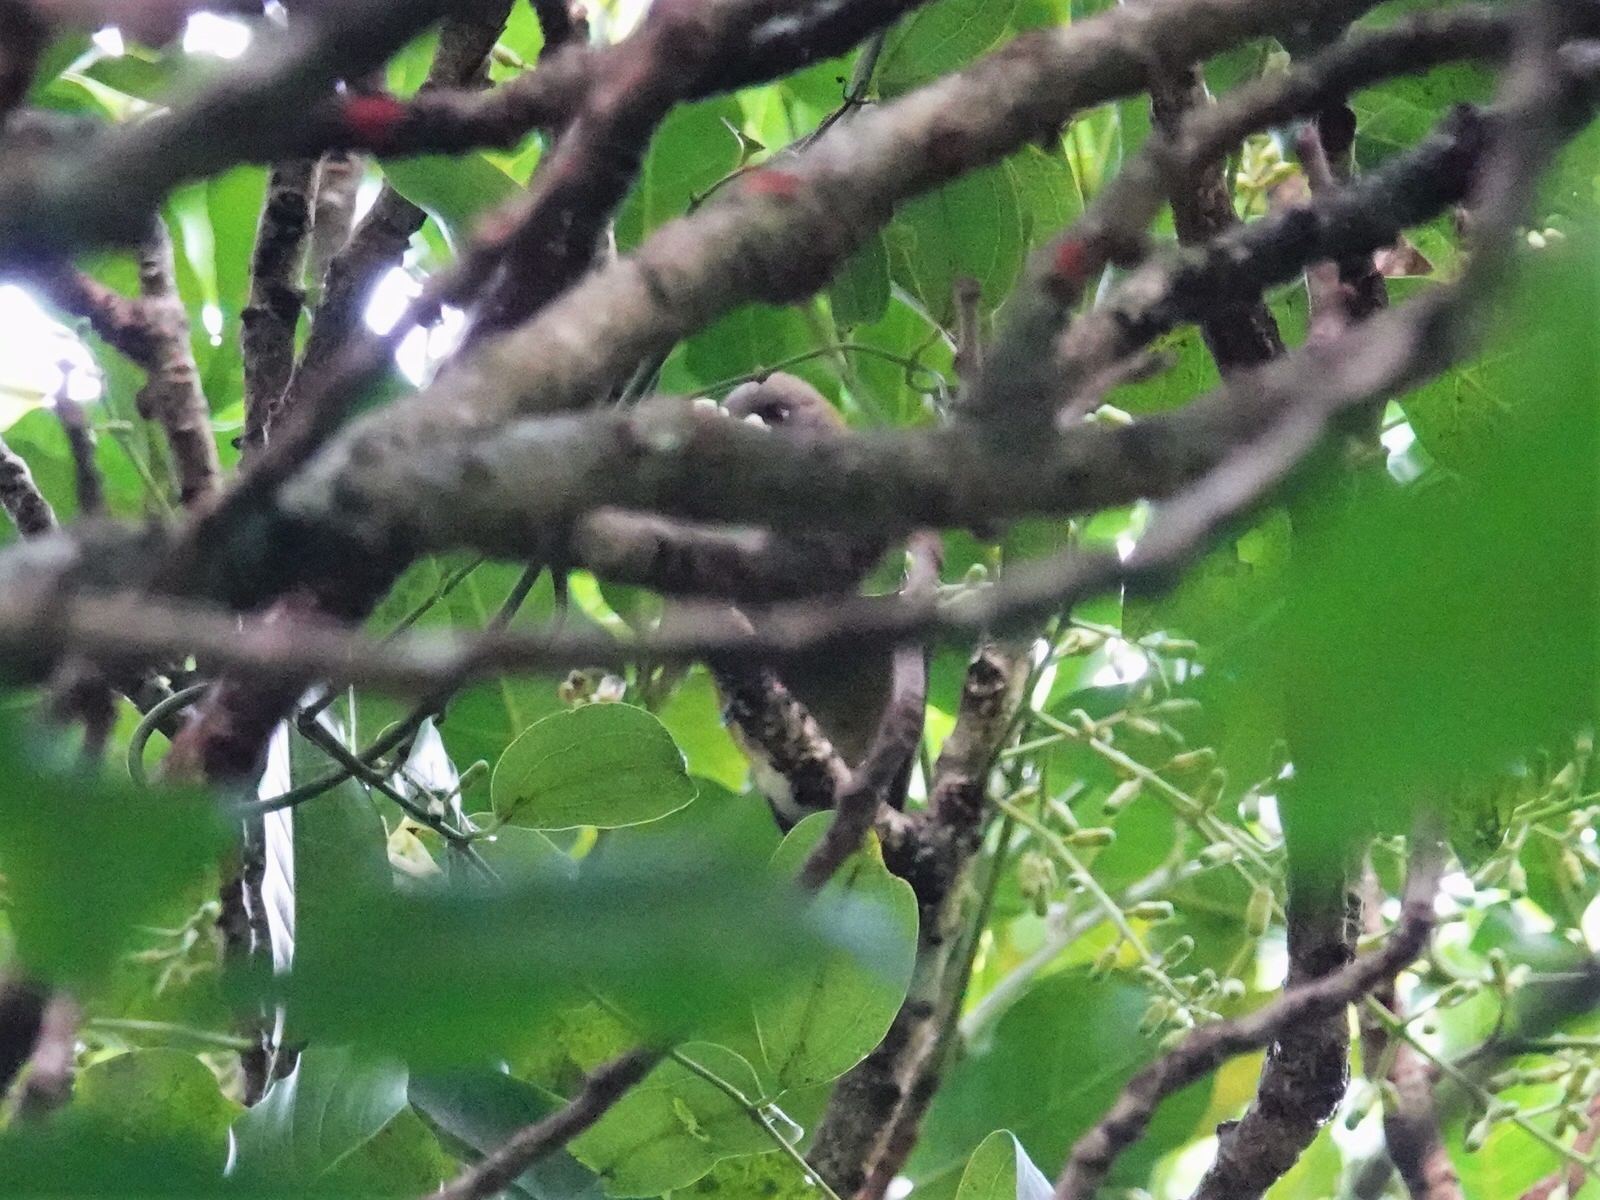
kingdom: Animalia
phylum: Chordata
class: Aves
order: Passeriformes
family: Meliphagidae
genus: Anthornis
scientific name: Anthornis melanura
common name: New zealand bellbird
